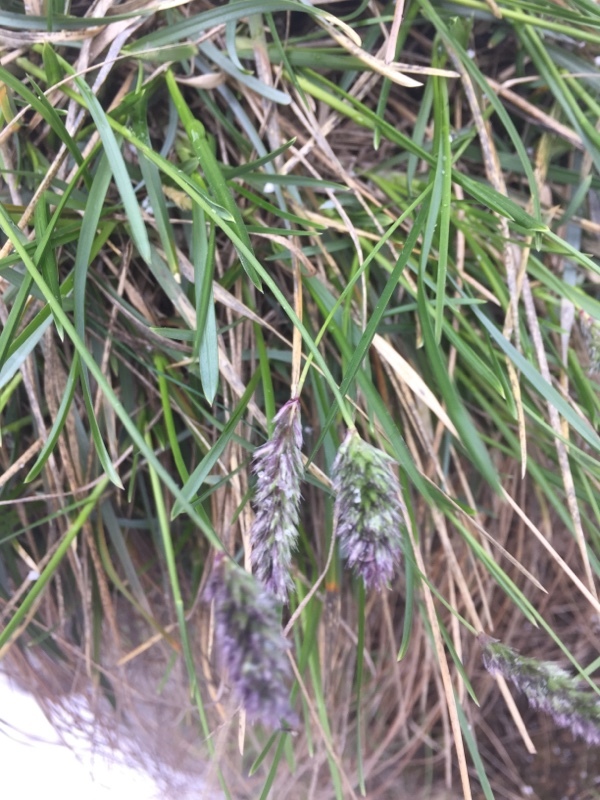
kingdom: Plantae
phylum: Tracheophyta
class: Liliopsida
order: Poales
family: Poaceae
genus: Sesleria
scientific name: Sesleria caerulea
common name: Blue moor-grass
